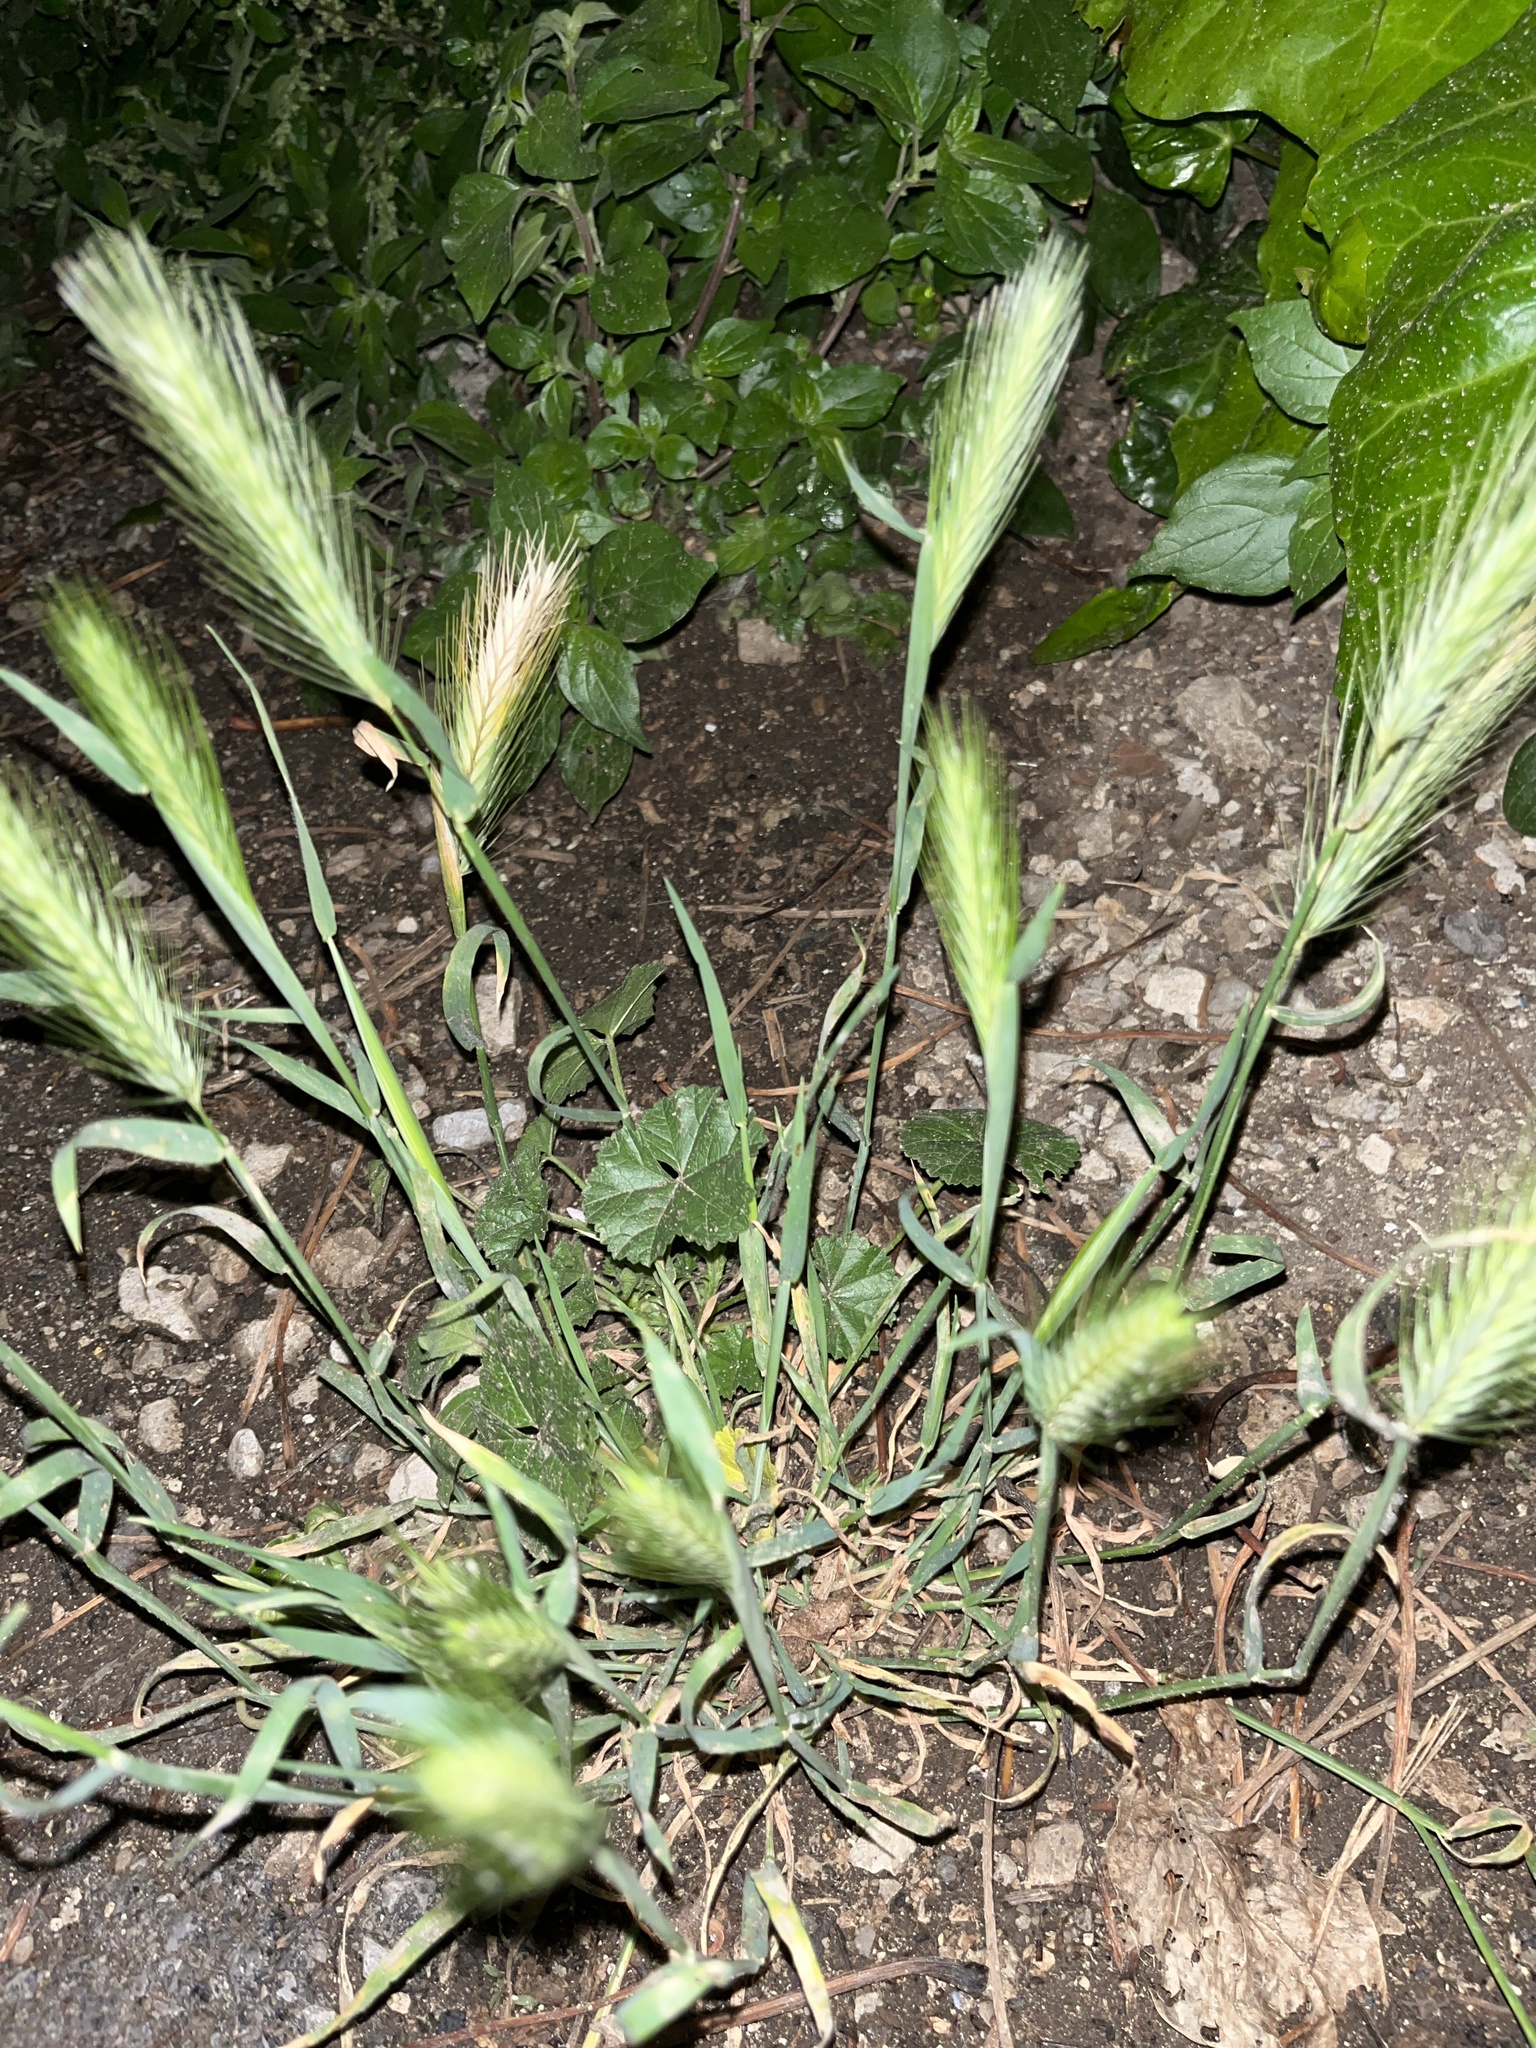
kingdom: Plantae
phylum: Tracheophyta
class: Liliopsida
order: Poales
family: Poaceae
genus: Hordeum
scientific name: Hordeum murinum
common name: Wall barley
